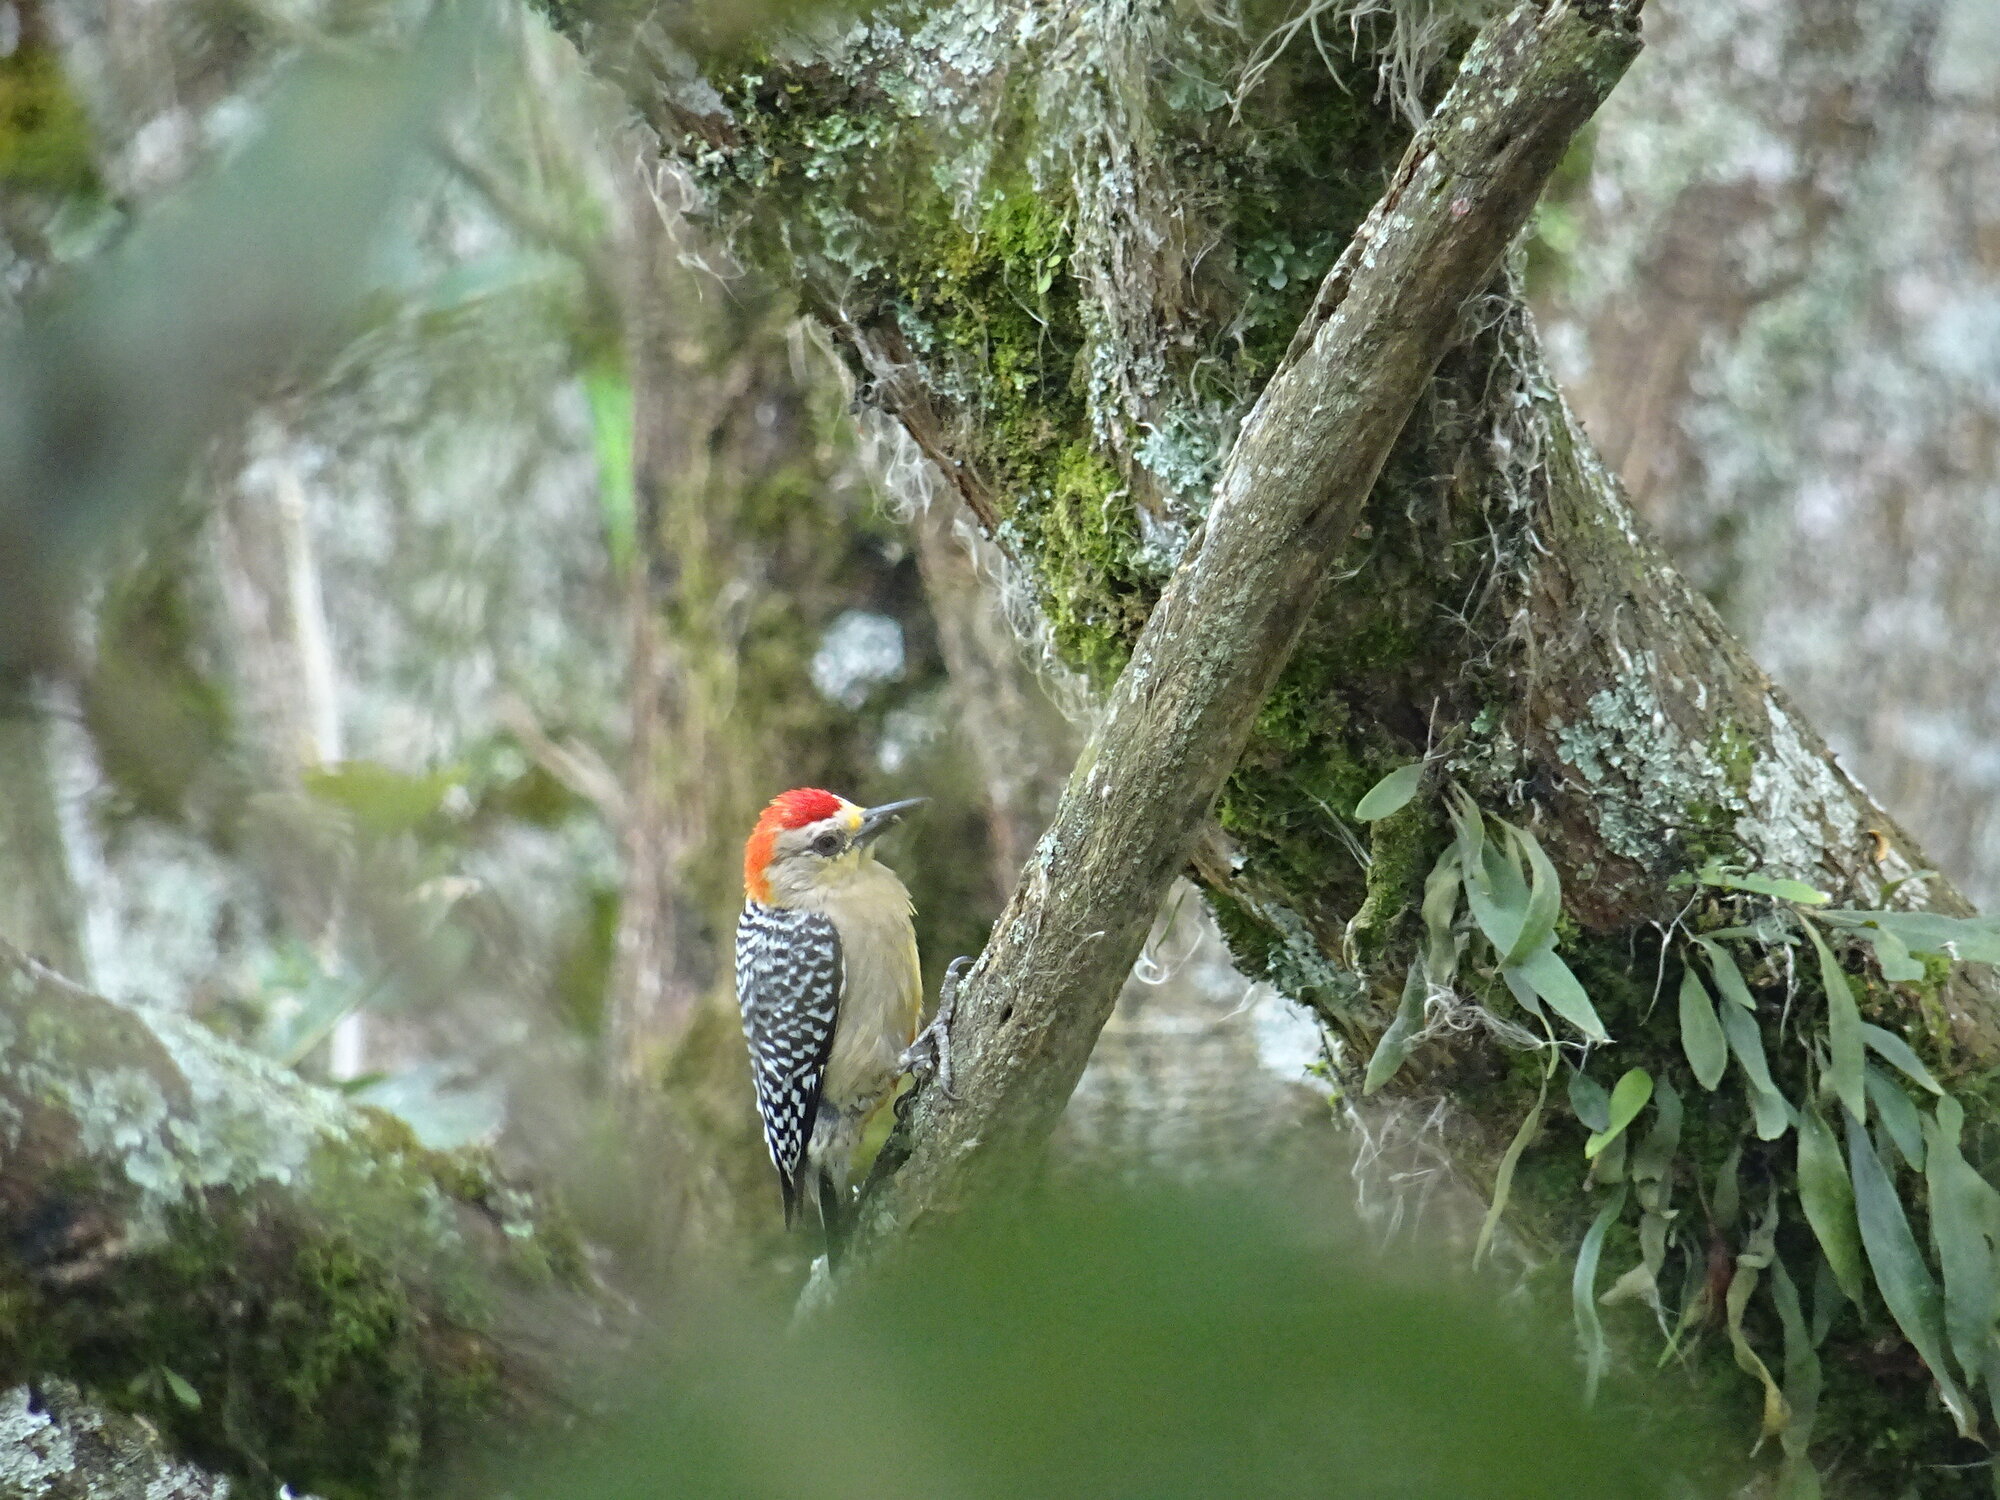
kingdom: Animalia
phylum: Chordata
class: Aves
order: Piciformes
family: Picidae
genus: Melanerpes
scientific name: Melanerpes rubricapillus
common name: Red-crowned woodpecker
